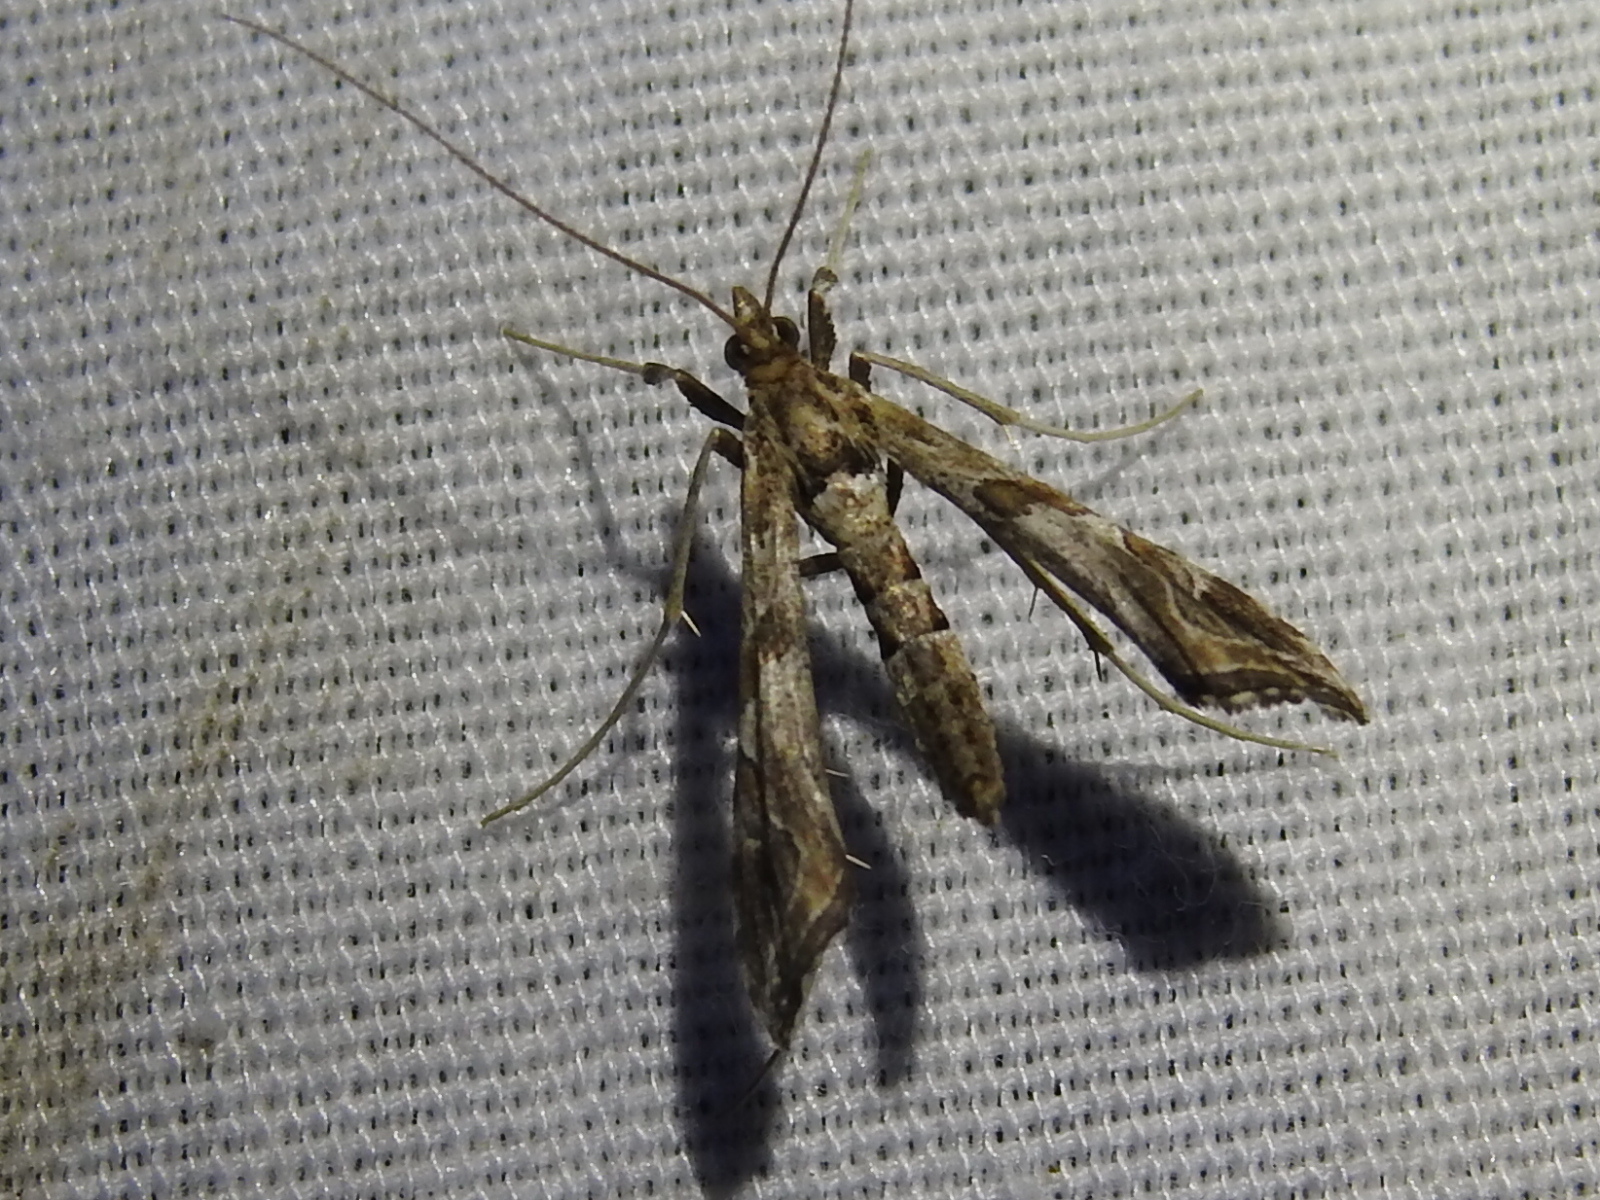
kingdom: Animalia
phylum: Arthropoda
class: Insecta
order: Lepidoptera
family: Crambidae
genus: Lineodes
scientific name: Lineodes interrupta
